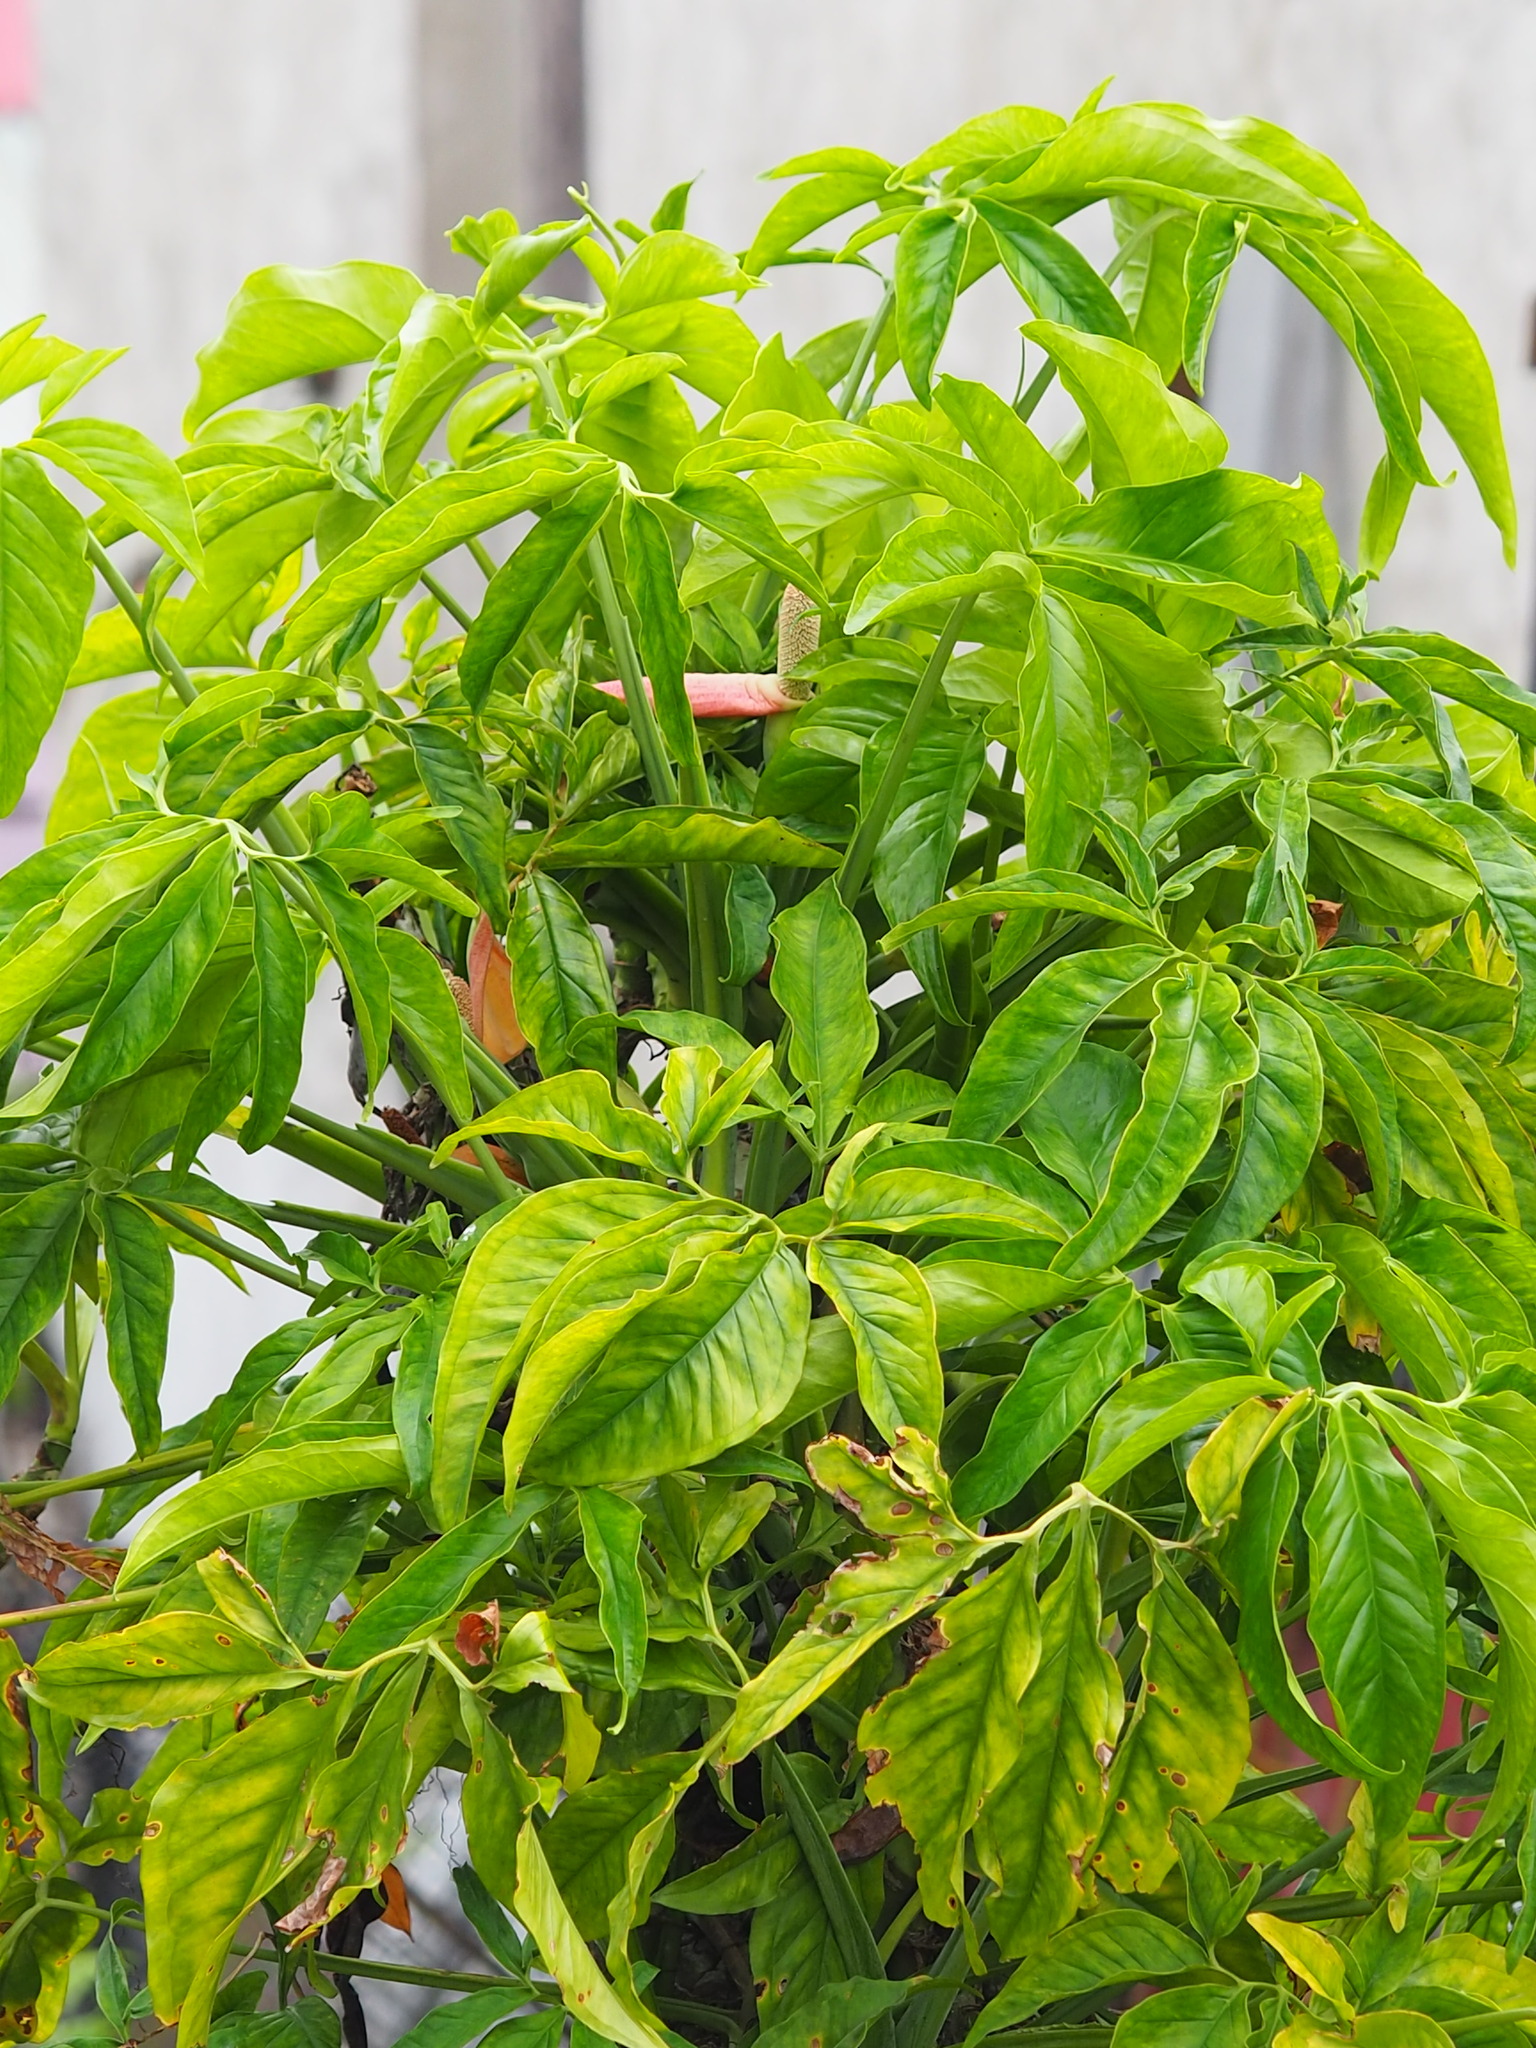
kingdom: Plantae
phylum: Tracheophyta
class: Liliopsida
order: Alismatales
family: Araceae
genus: Syngonium
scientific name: Syngonium angustatum
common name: Fivefingers
